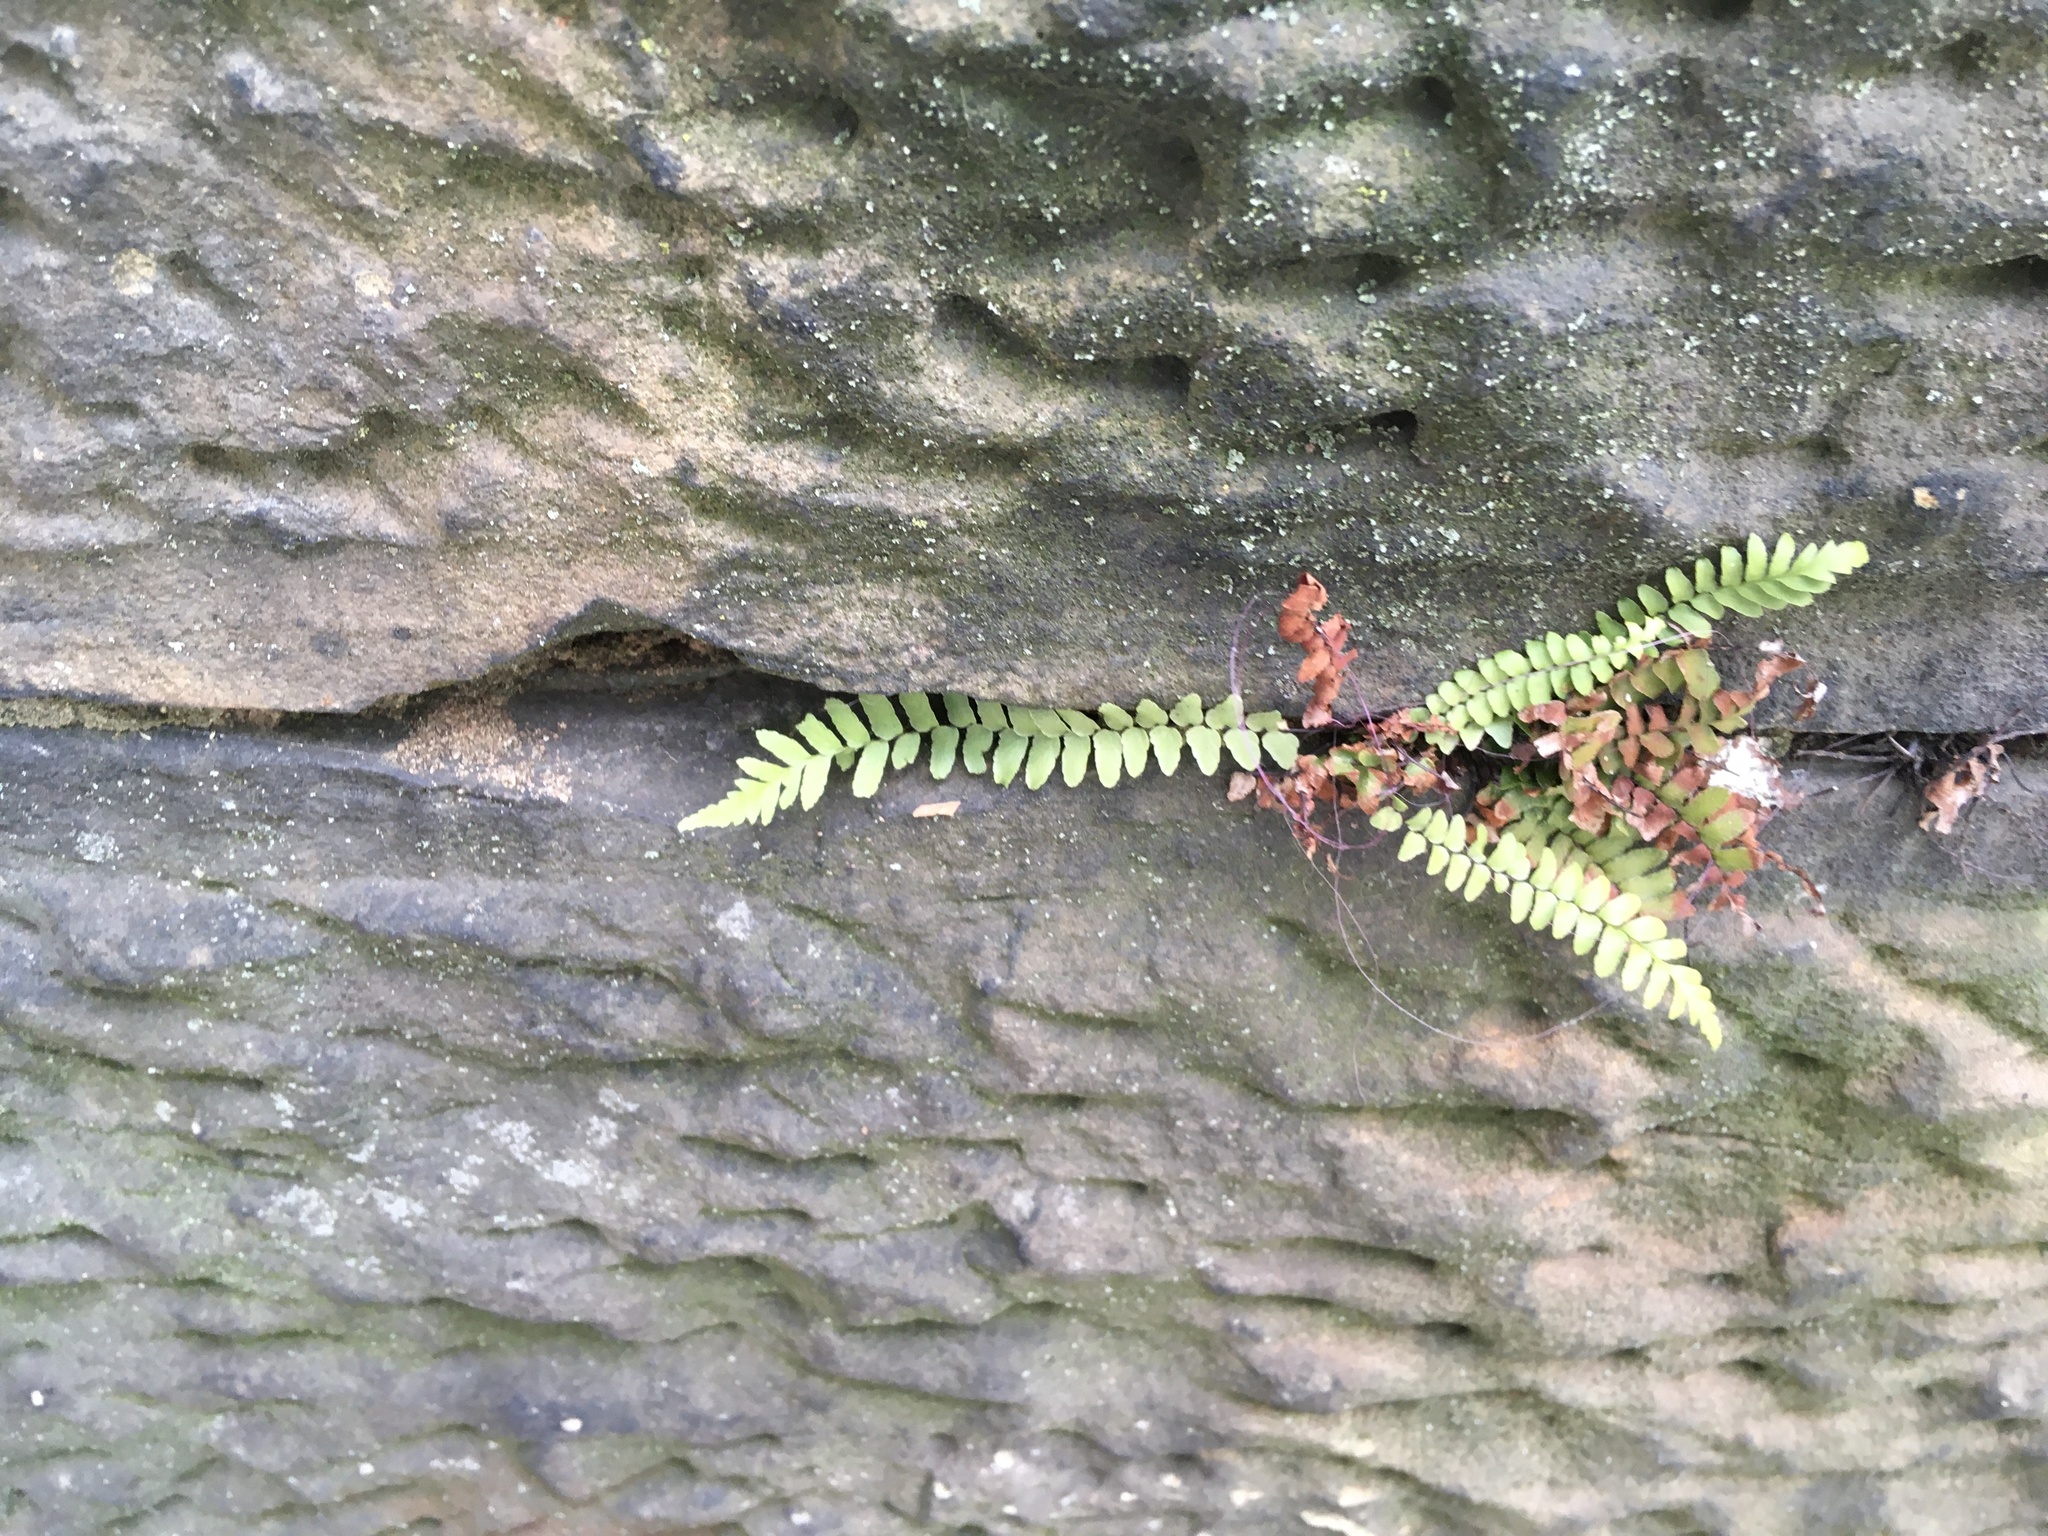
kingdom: Plantae
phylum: Tracheophyta
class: Polypodiopsida
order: Polypodiales
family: Aspleniaceae
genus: Asplenium
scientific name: Asplenium platyneuron
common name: Ebony spleenwort
